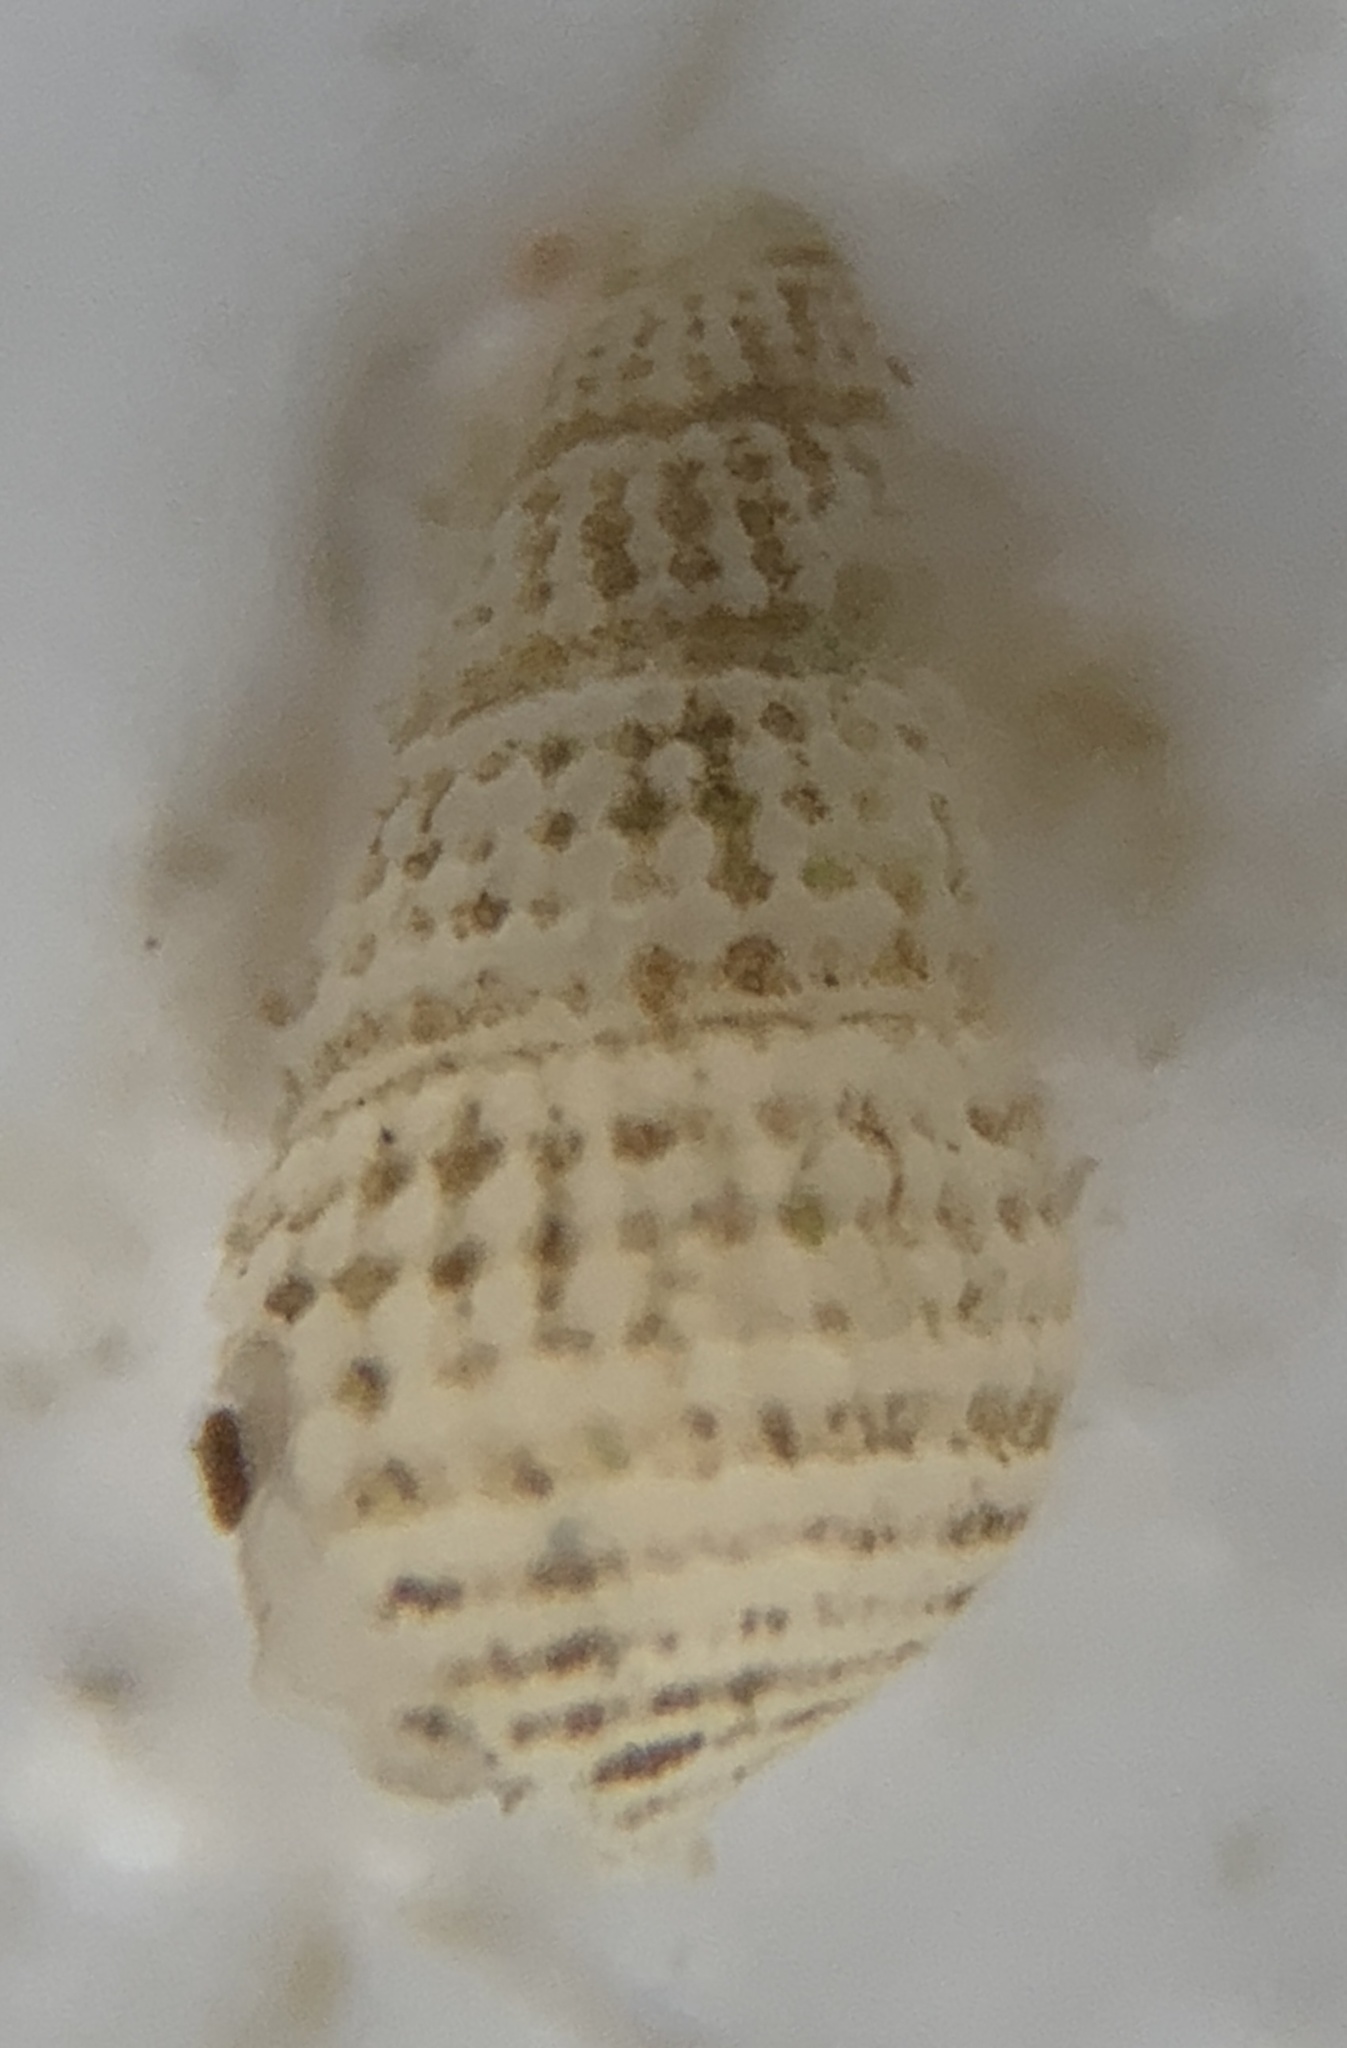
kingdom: Animalia
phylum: Mollusca
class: Gastropoda
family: Pyramidellidae
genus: Boonea
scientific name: Boonea seminuda
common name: Half-smooth odostome
